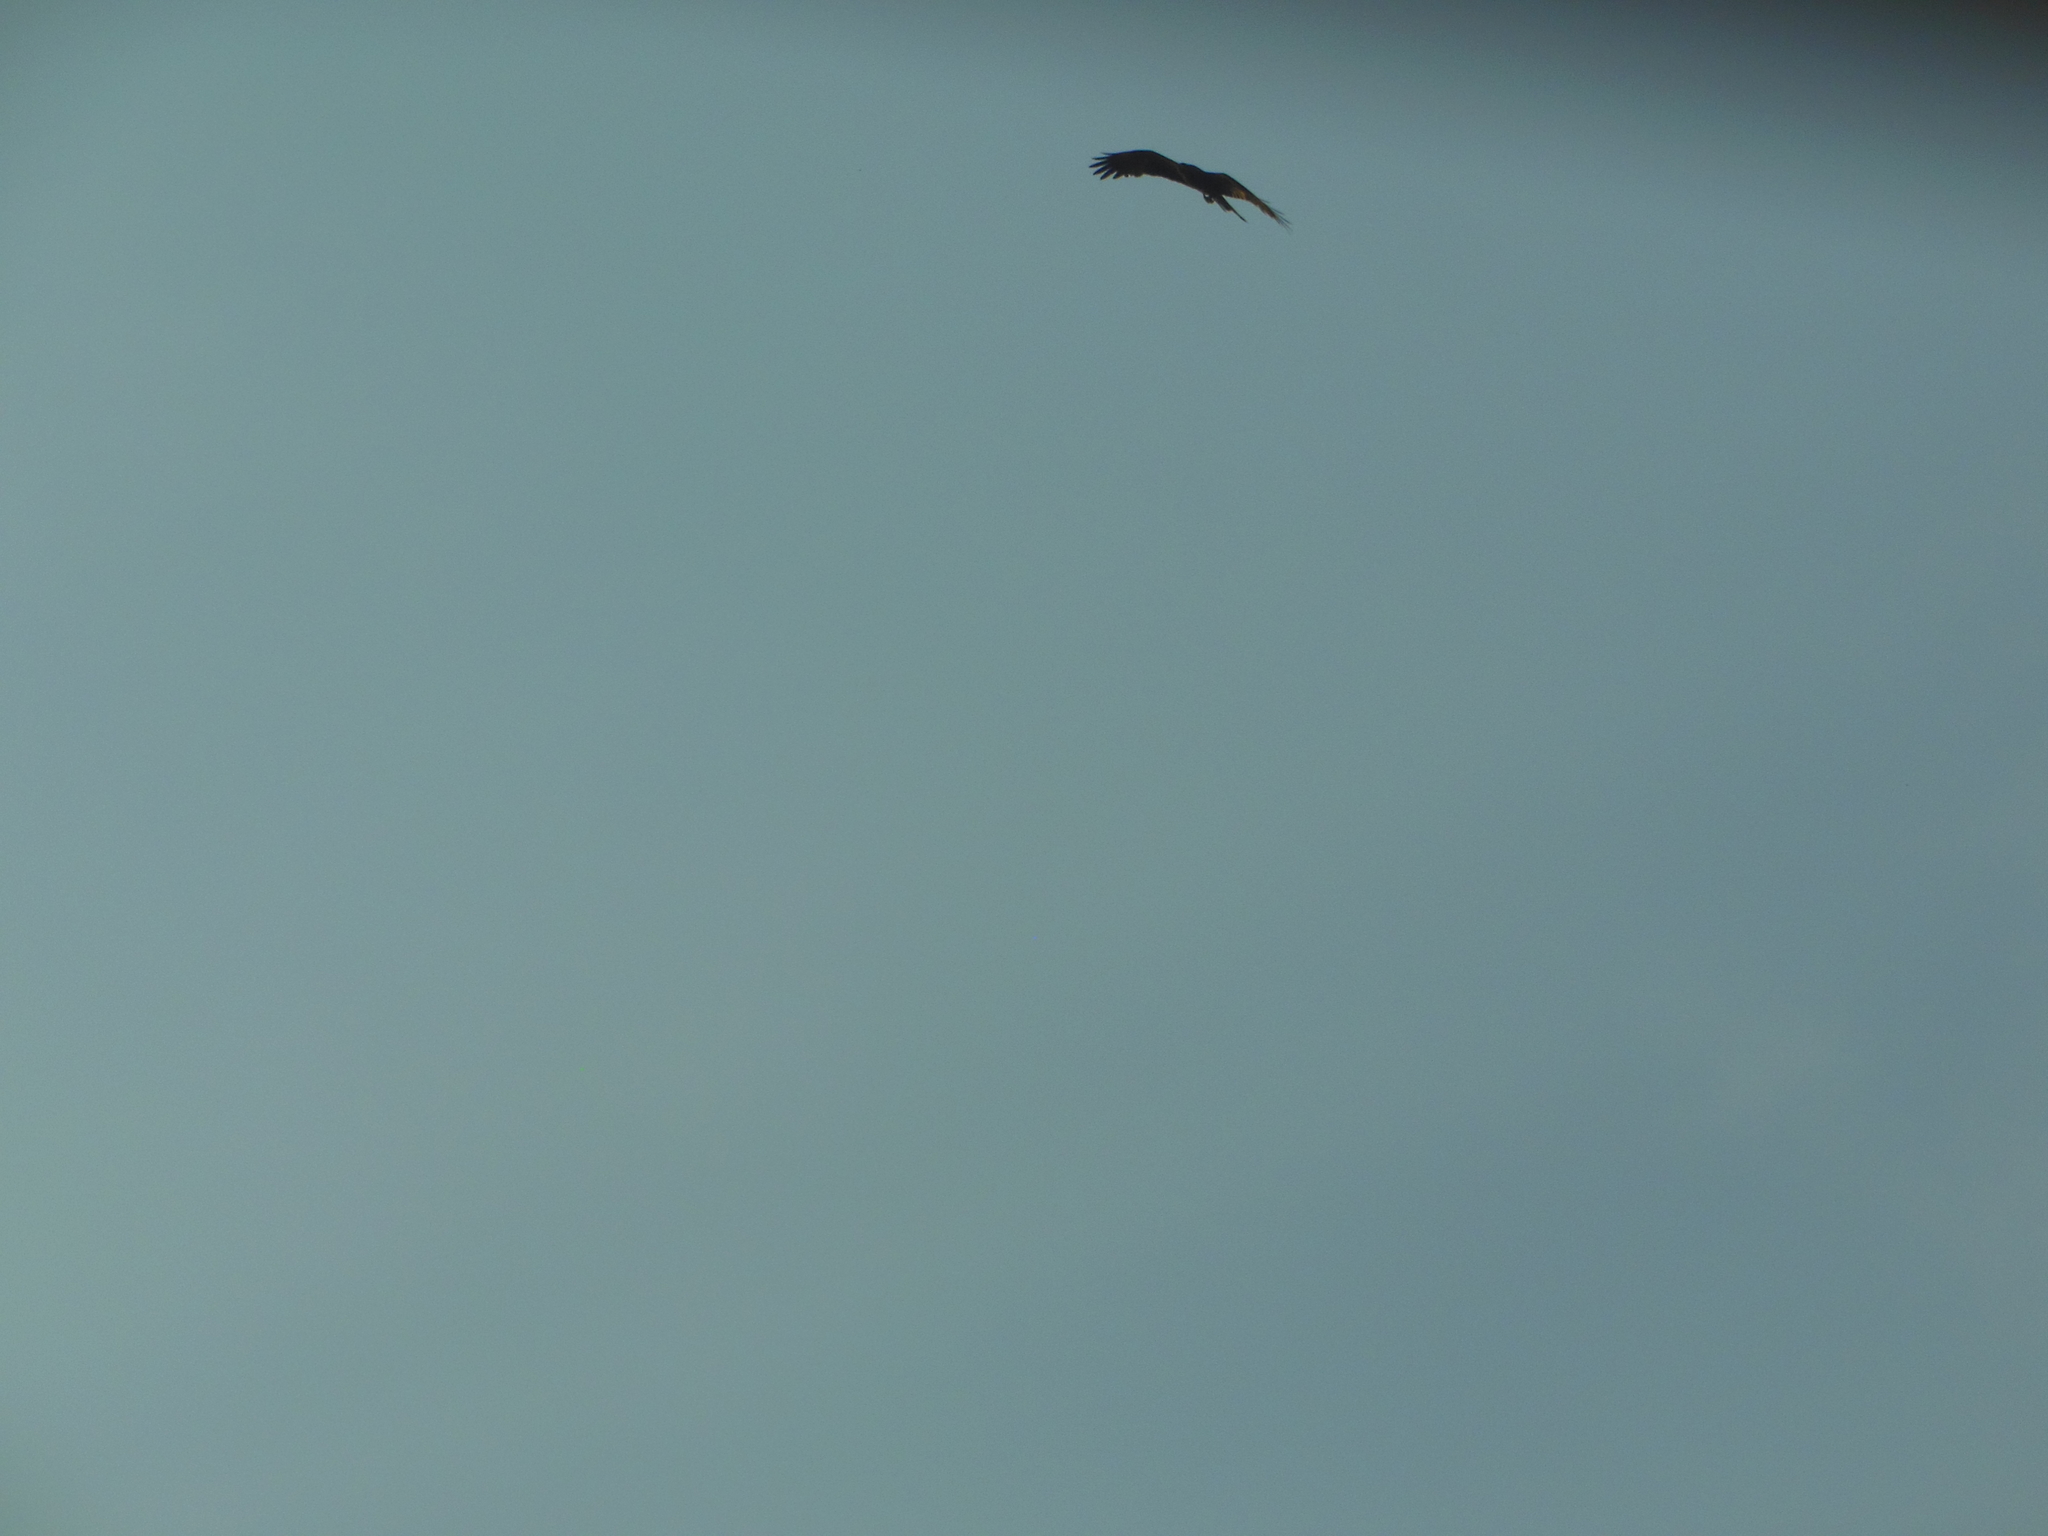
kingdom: Animalia
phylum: Chordata
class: Aves
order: Accipitriformes
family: Accipitridae
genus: Milvus
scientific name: Milvus migrans
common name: Black kite
